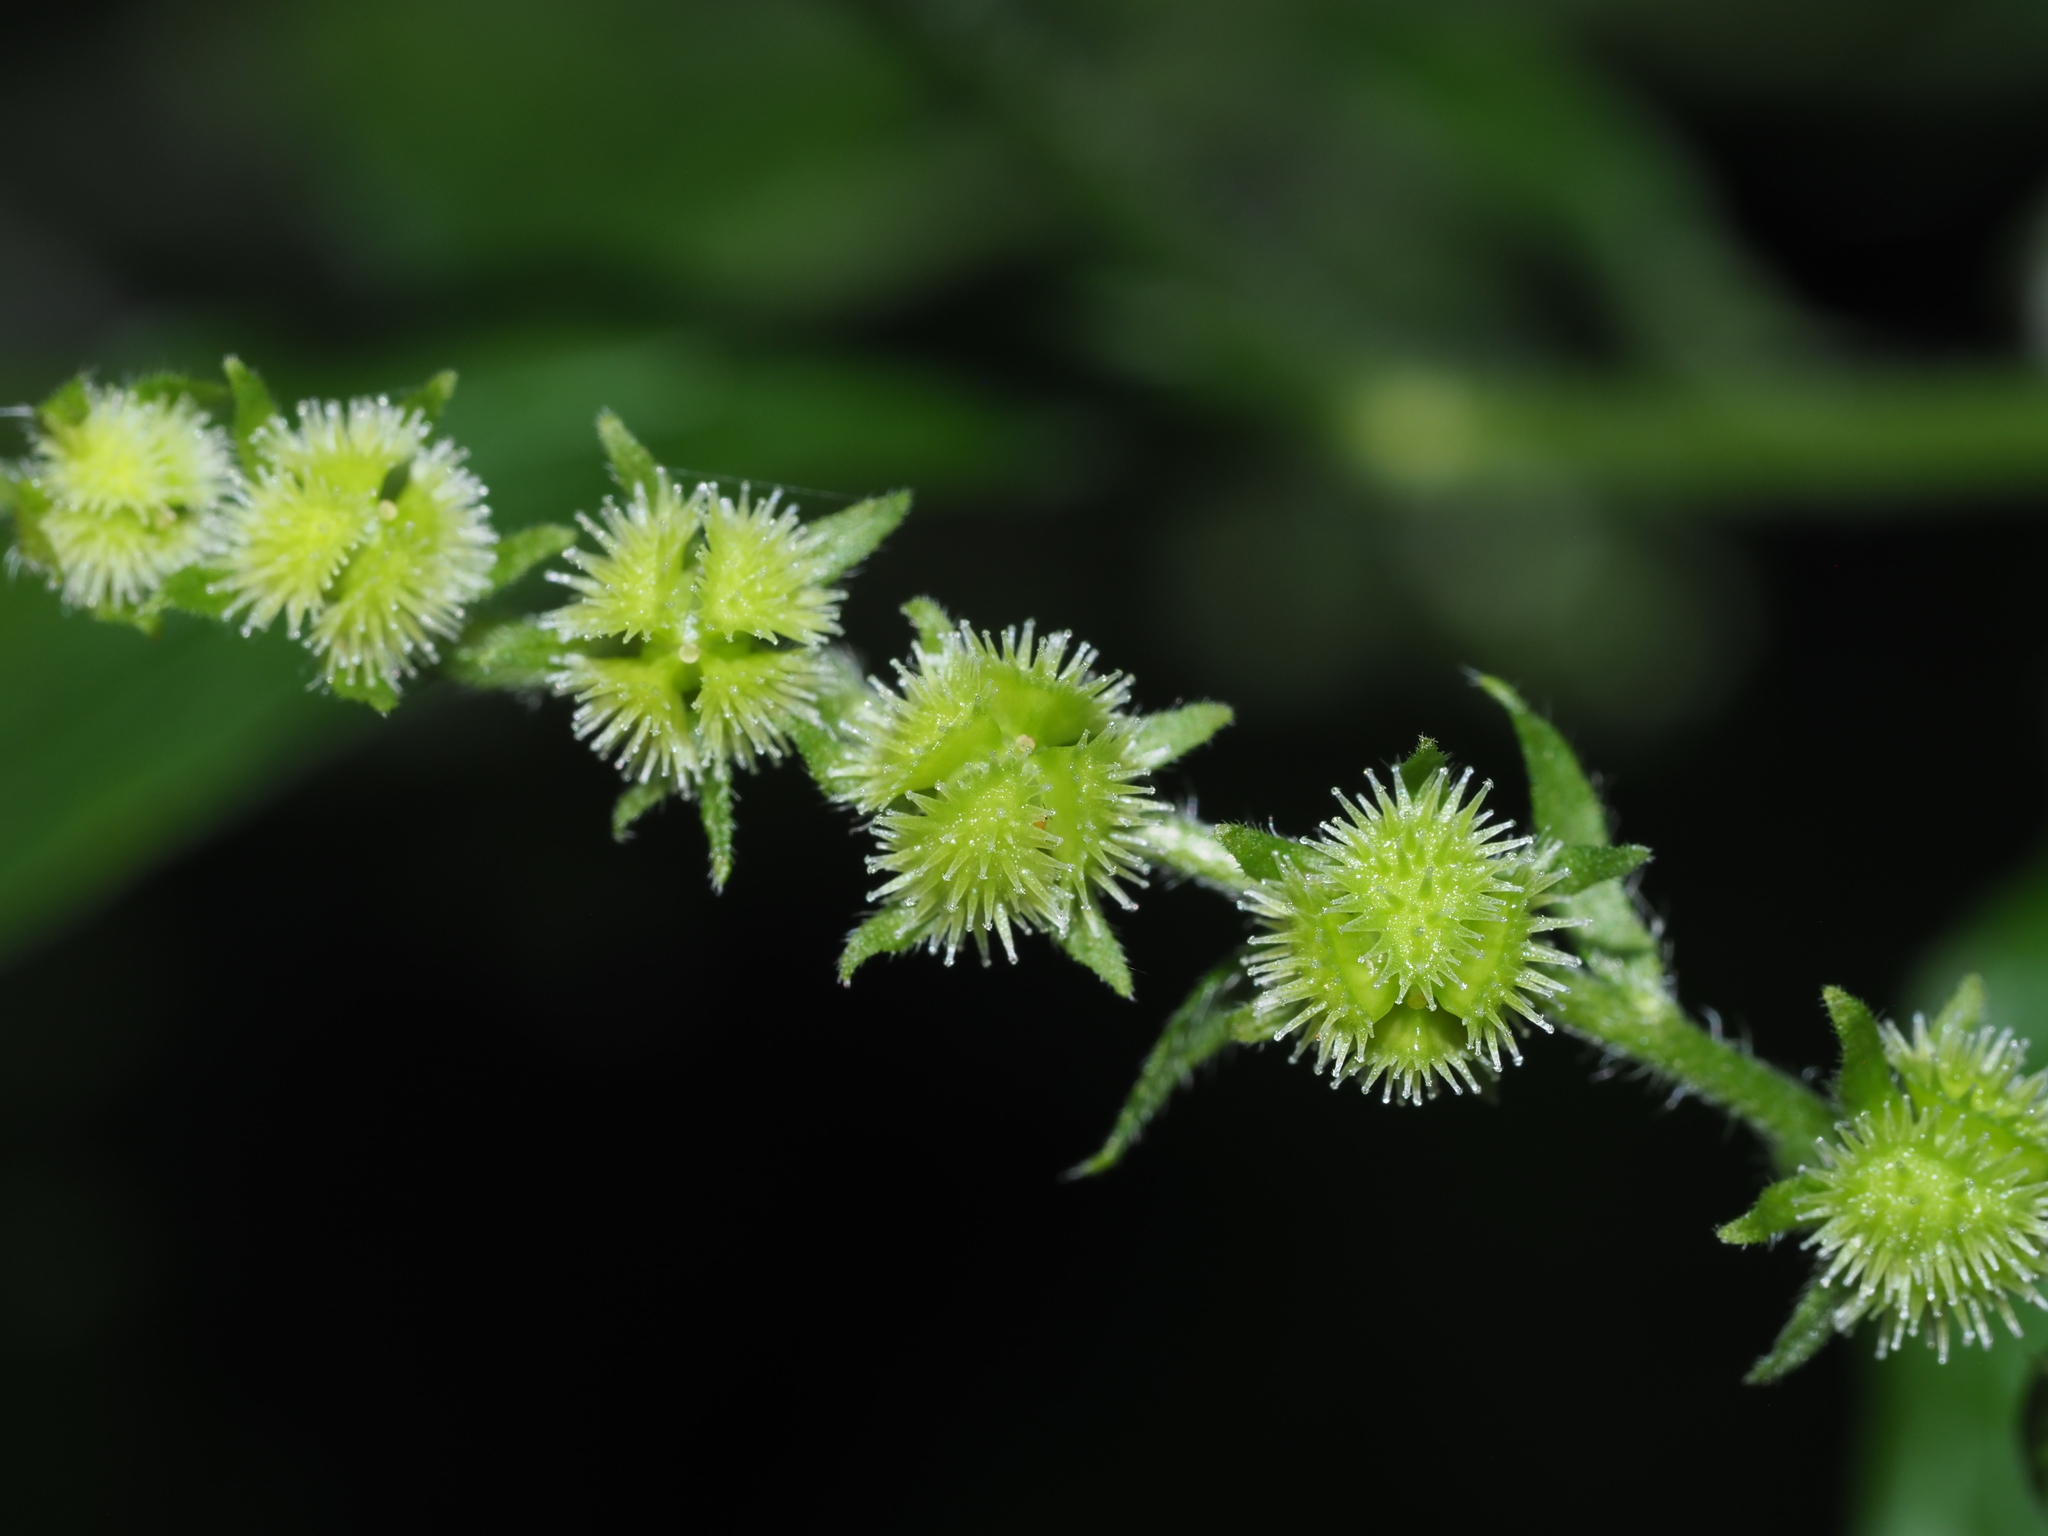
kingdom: Plantae
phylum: Tracheophyta
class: Magnoliopsida
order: Boraginales
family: Boraginaceae
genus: Hackelia
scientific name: Hackelia virginiana
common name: Beggar's-lice
